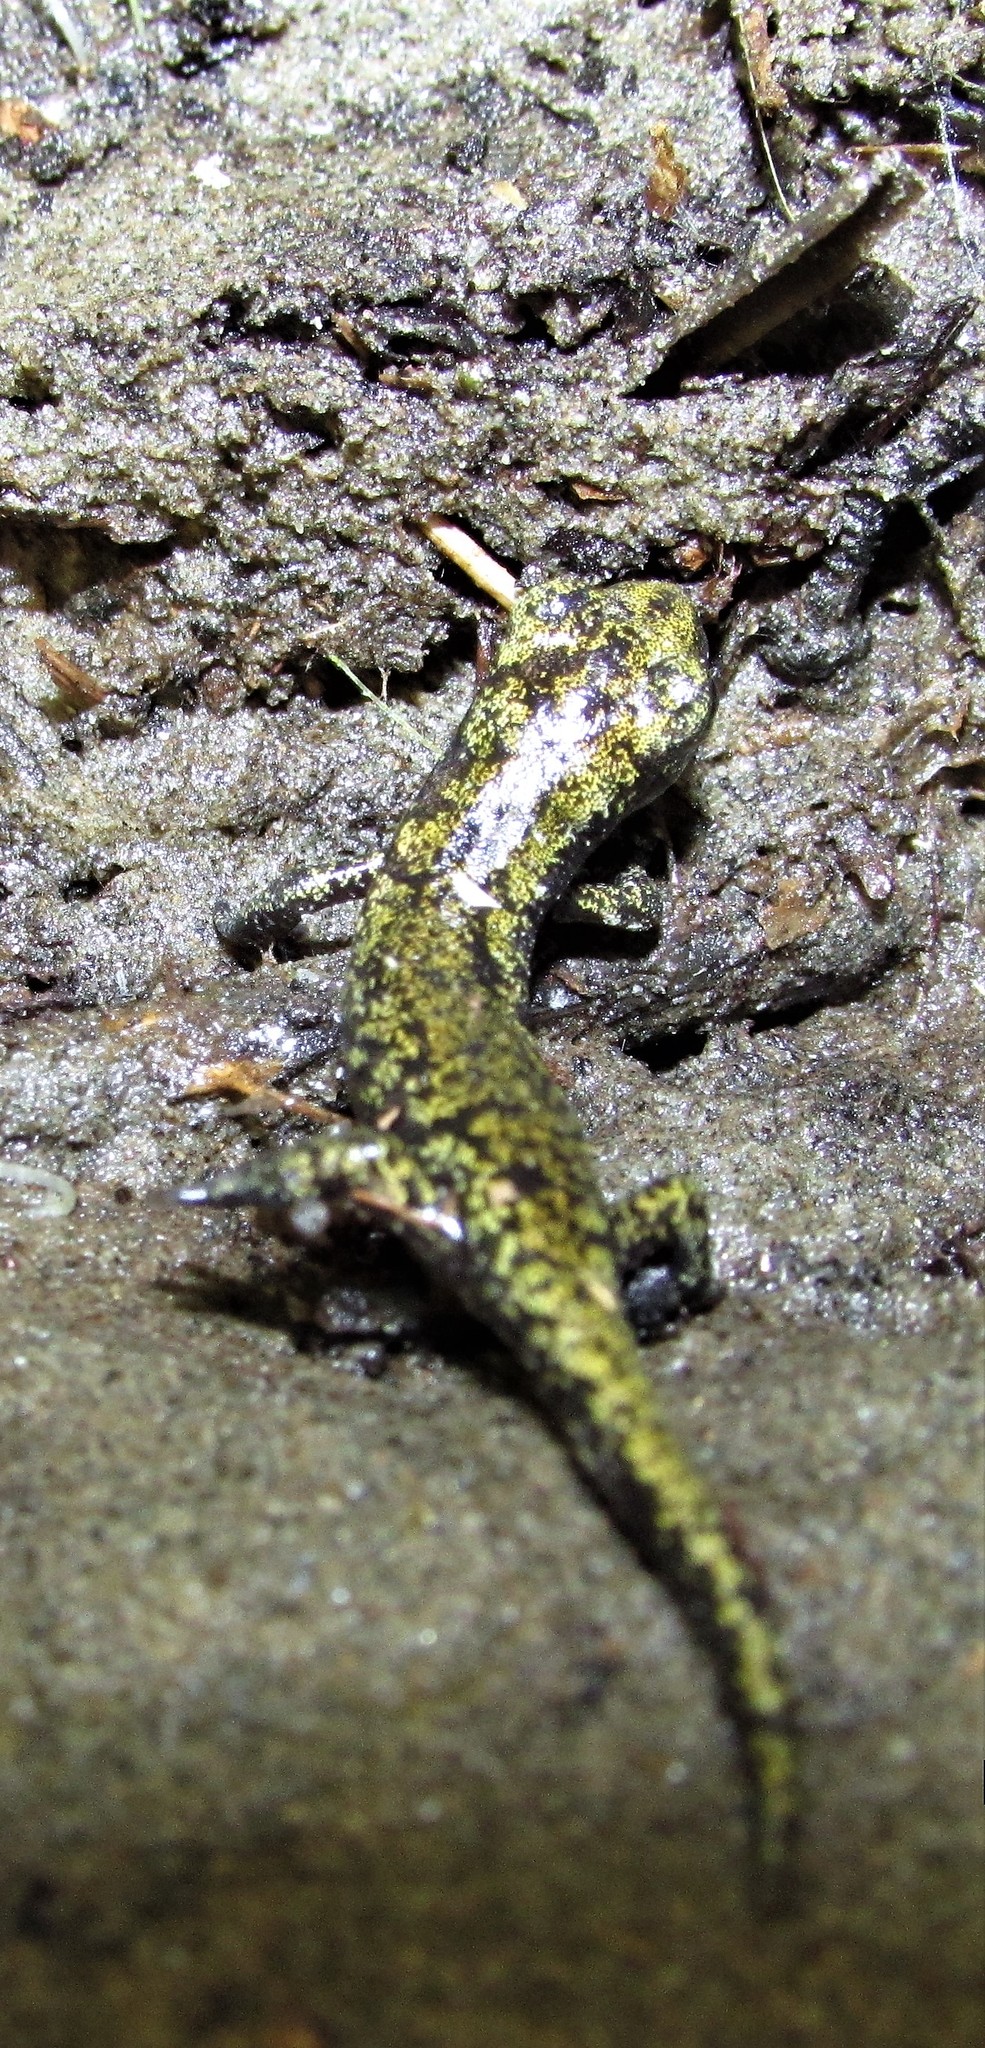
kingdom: Animalia
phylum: Chordata
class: Amphibia
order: Caudata
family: Plethodontidae
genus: Hydromantes
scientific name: Hydromantes platycephalus
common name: Mount lyell salamander
